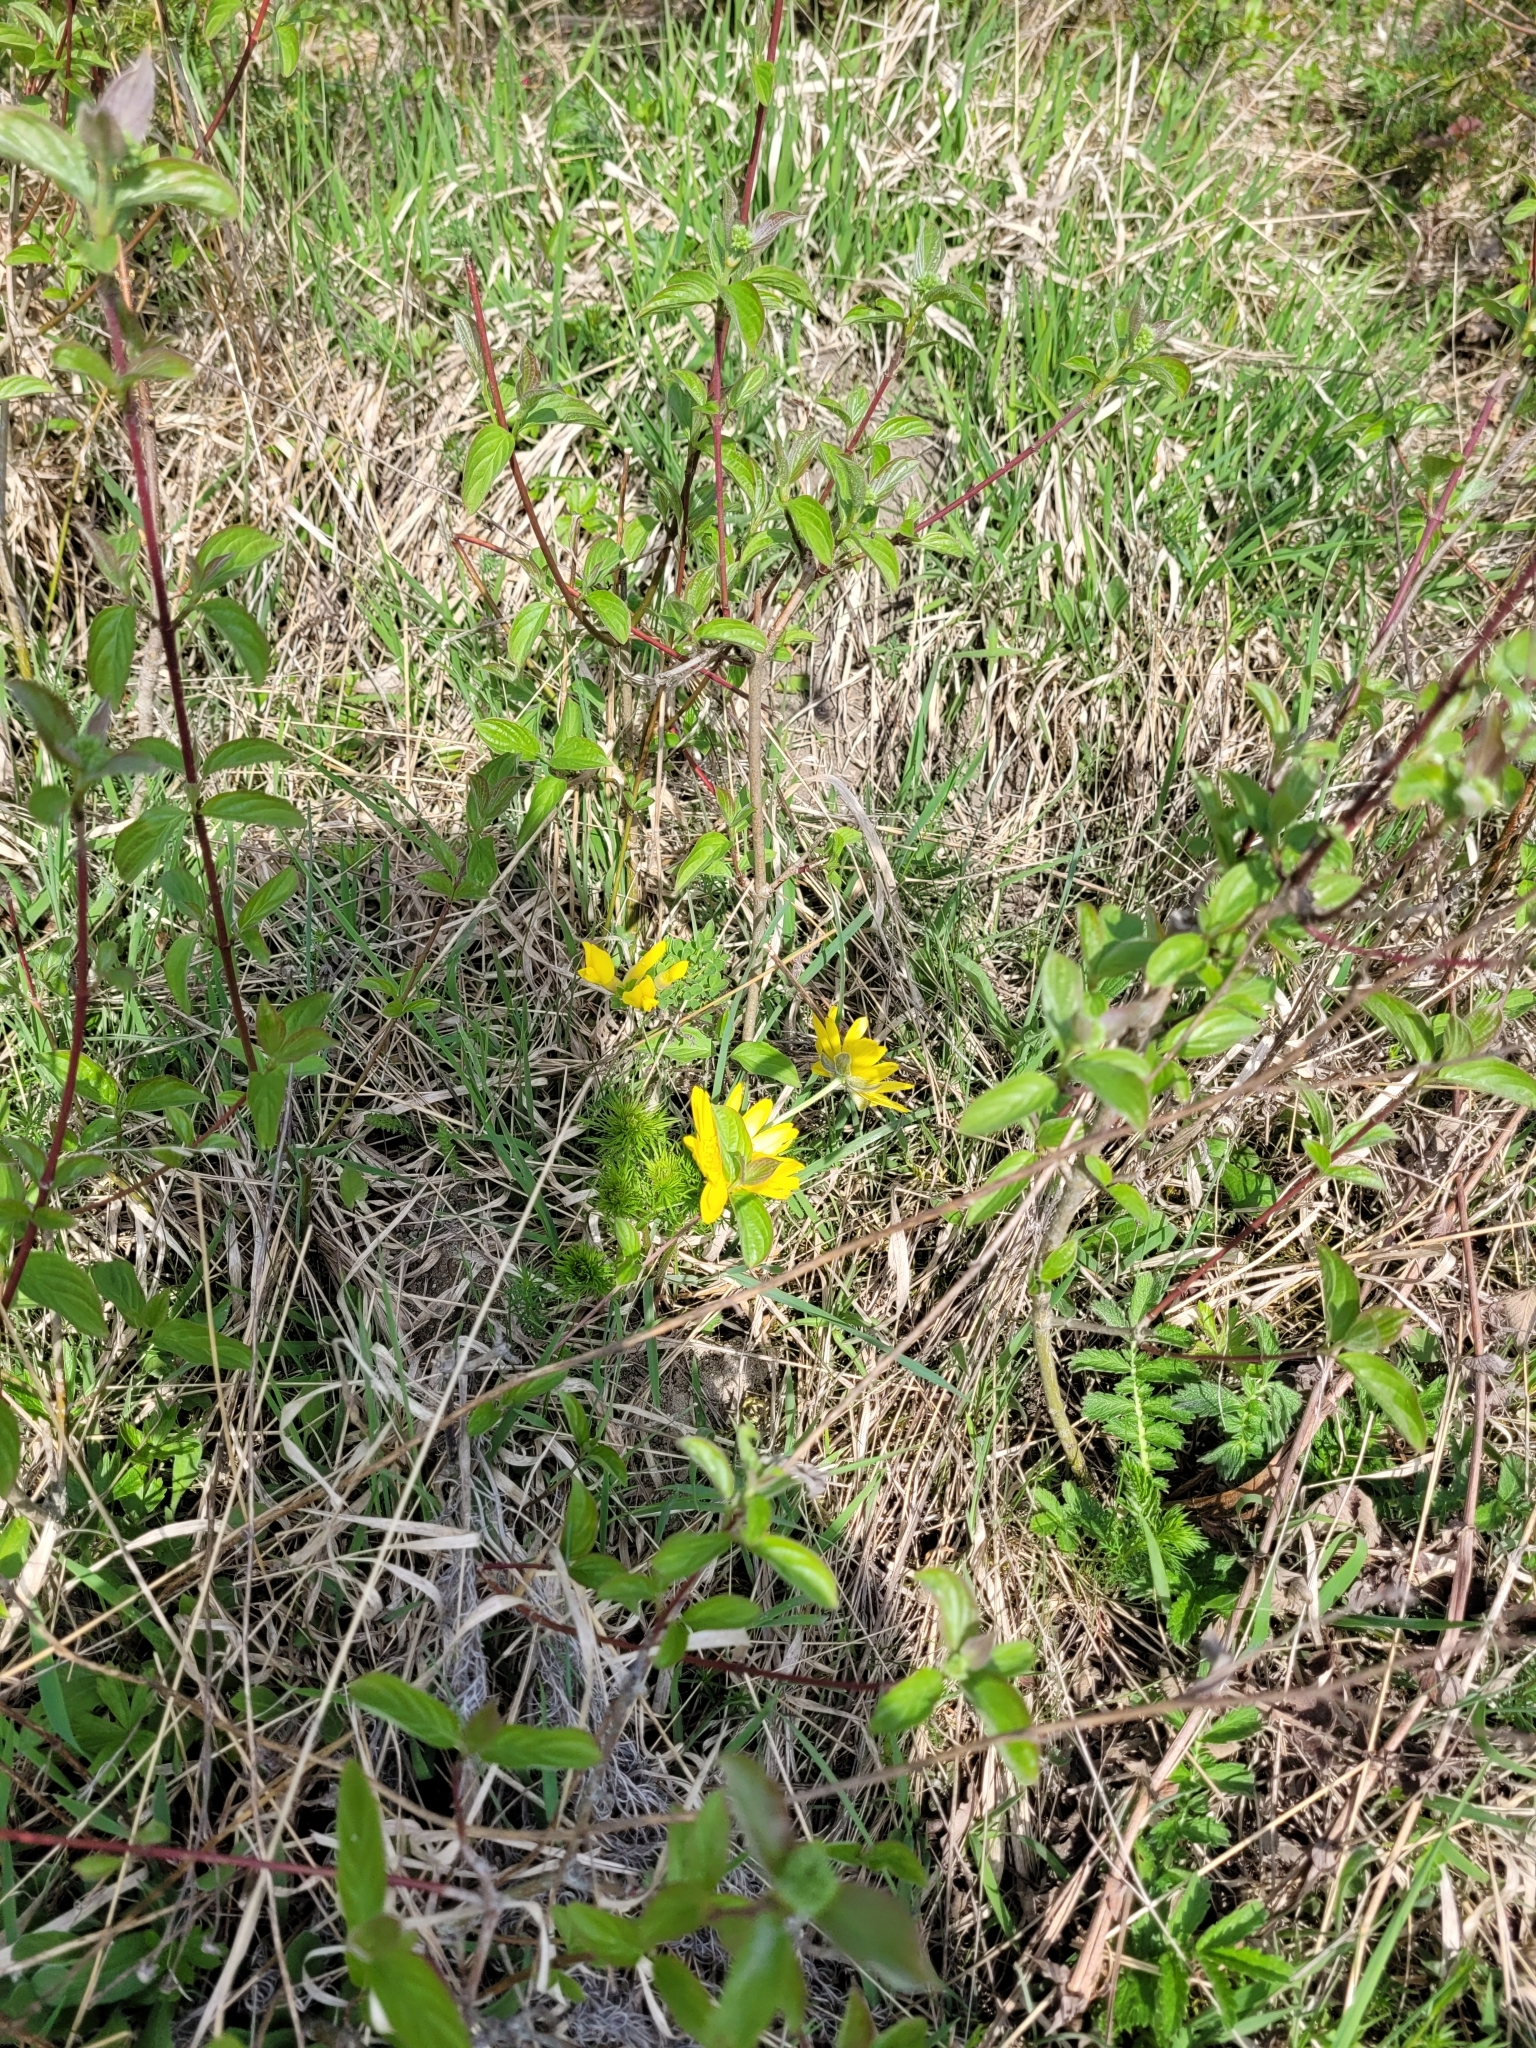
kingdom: Plantae
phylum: Tracheophyta
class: Magnoliopsida
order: Ranunculales
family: Ranunculaceae
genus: Adonis
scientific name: Adonis vernalis
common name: Yellow pheasants-eye
